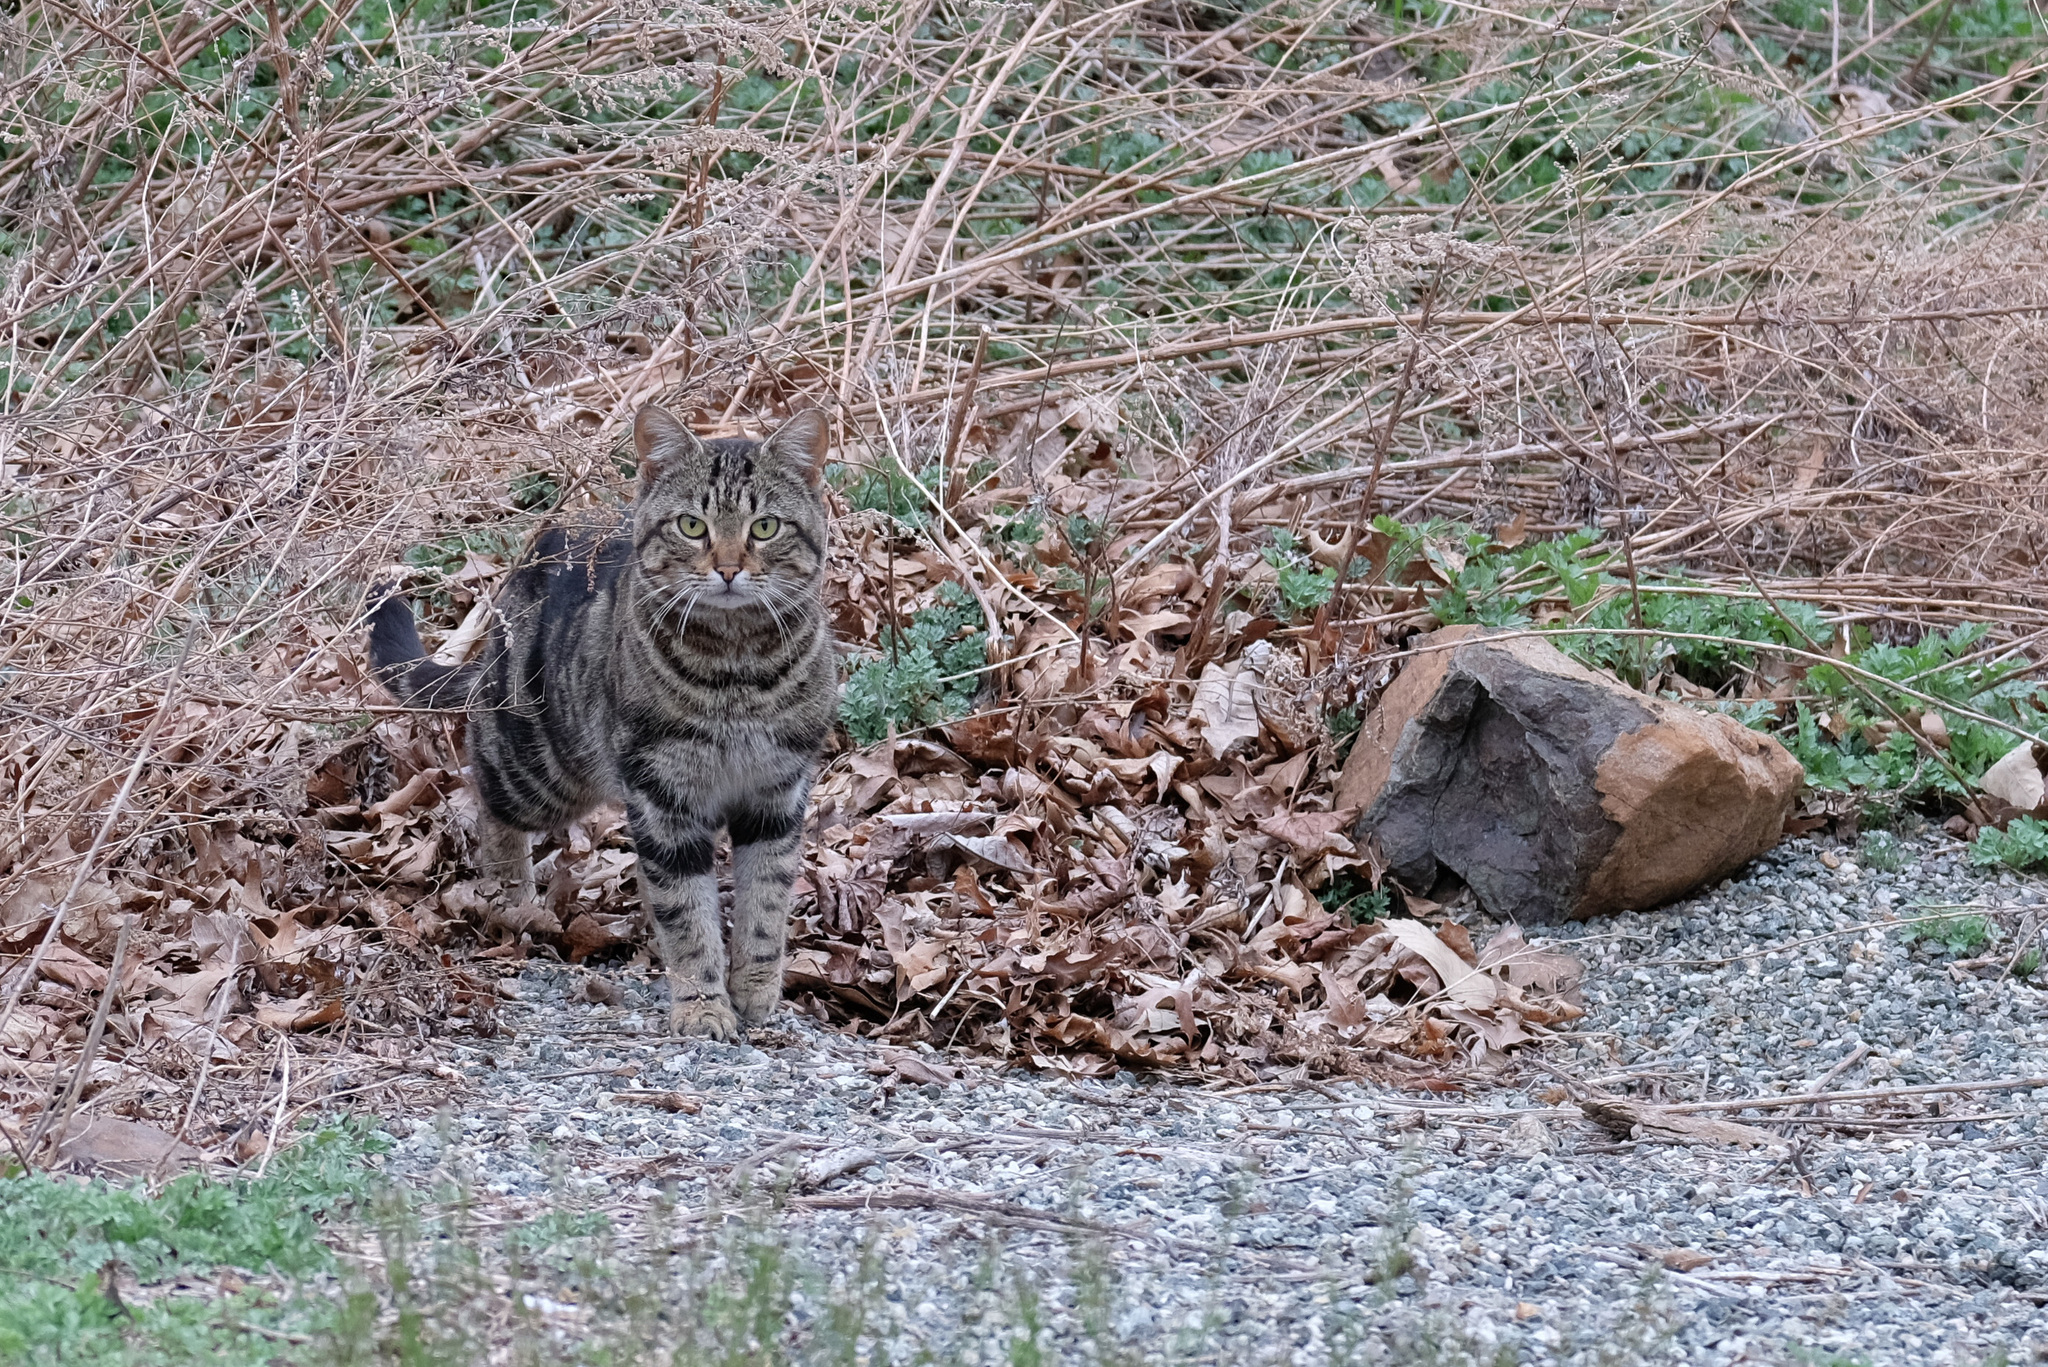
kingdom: Animalia
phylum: Chordata
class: Mammalia
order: Carnivora
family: Felidae
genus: Felis
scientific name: Felis catus
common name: Domestic cat
